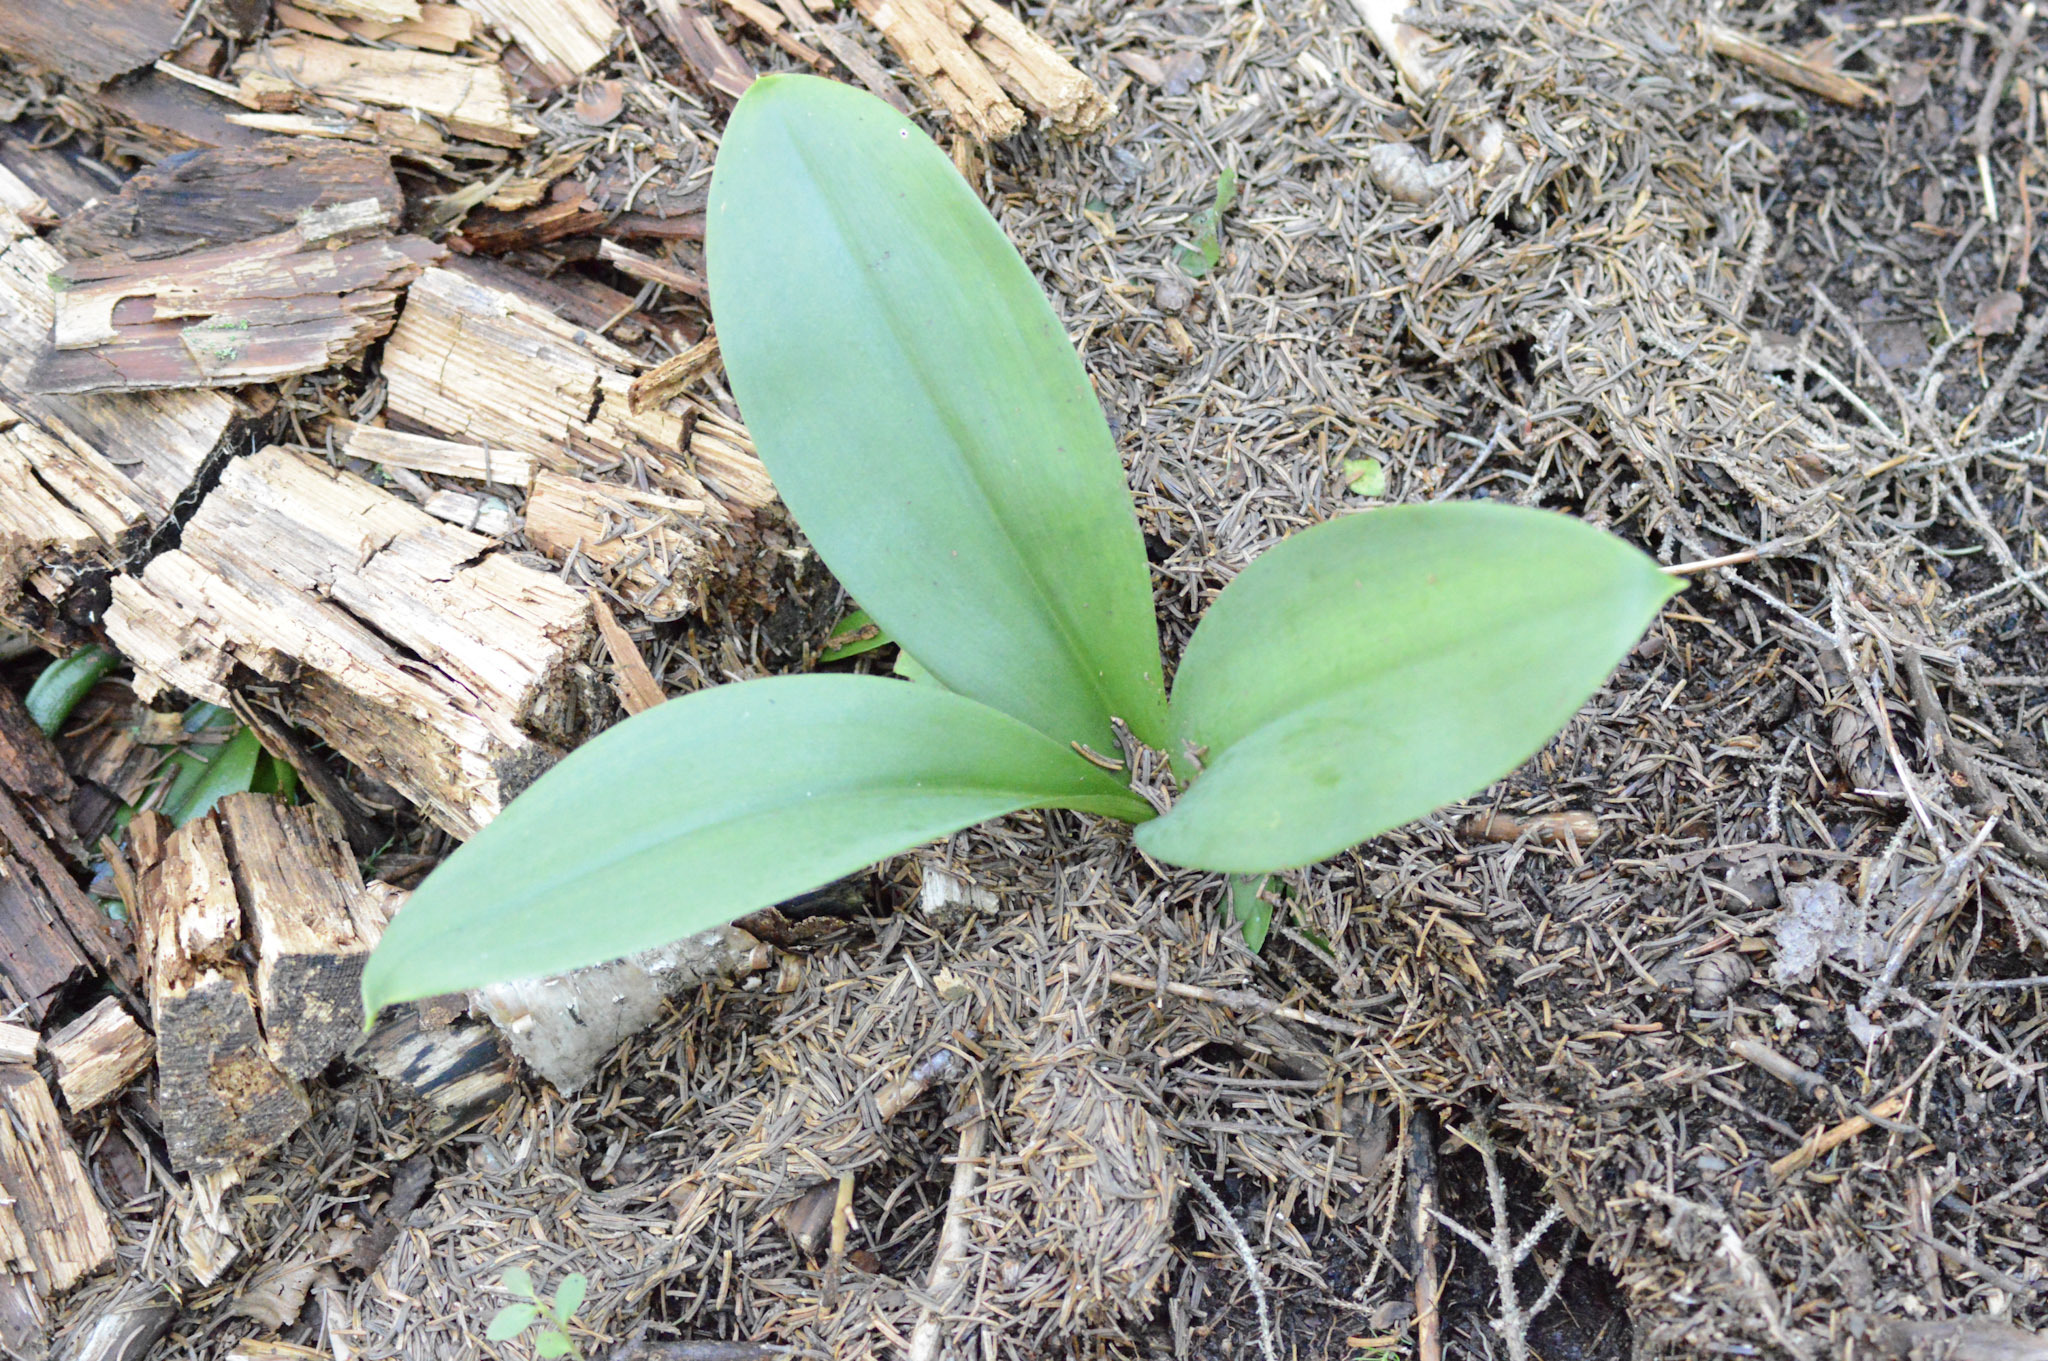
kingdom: Plantae
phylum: Tracheophyta
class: Liliopsida
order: Liliales
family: Liliaceae
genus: Clintonia
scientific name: Clintonia borealis
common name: Yellow clintonia
